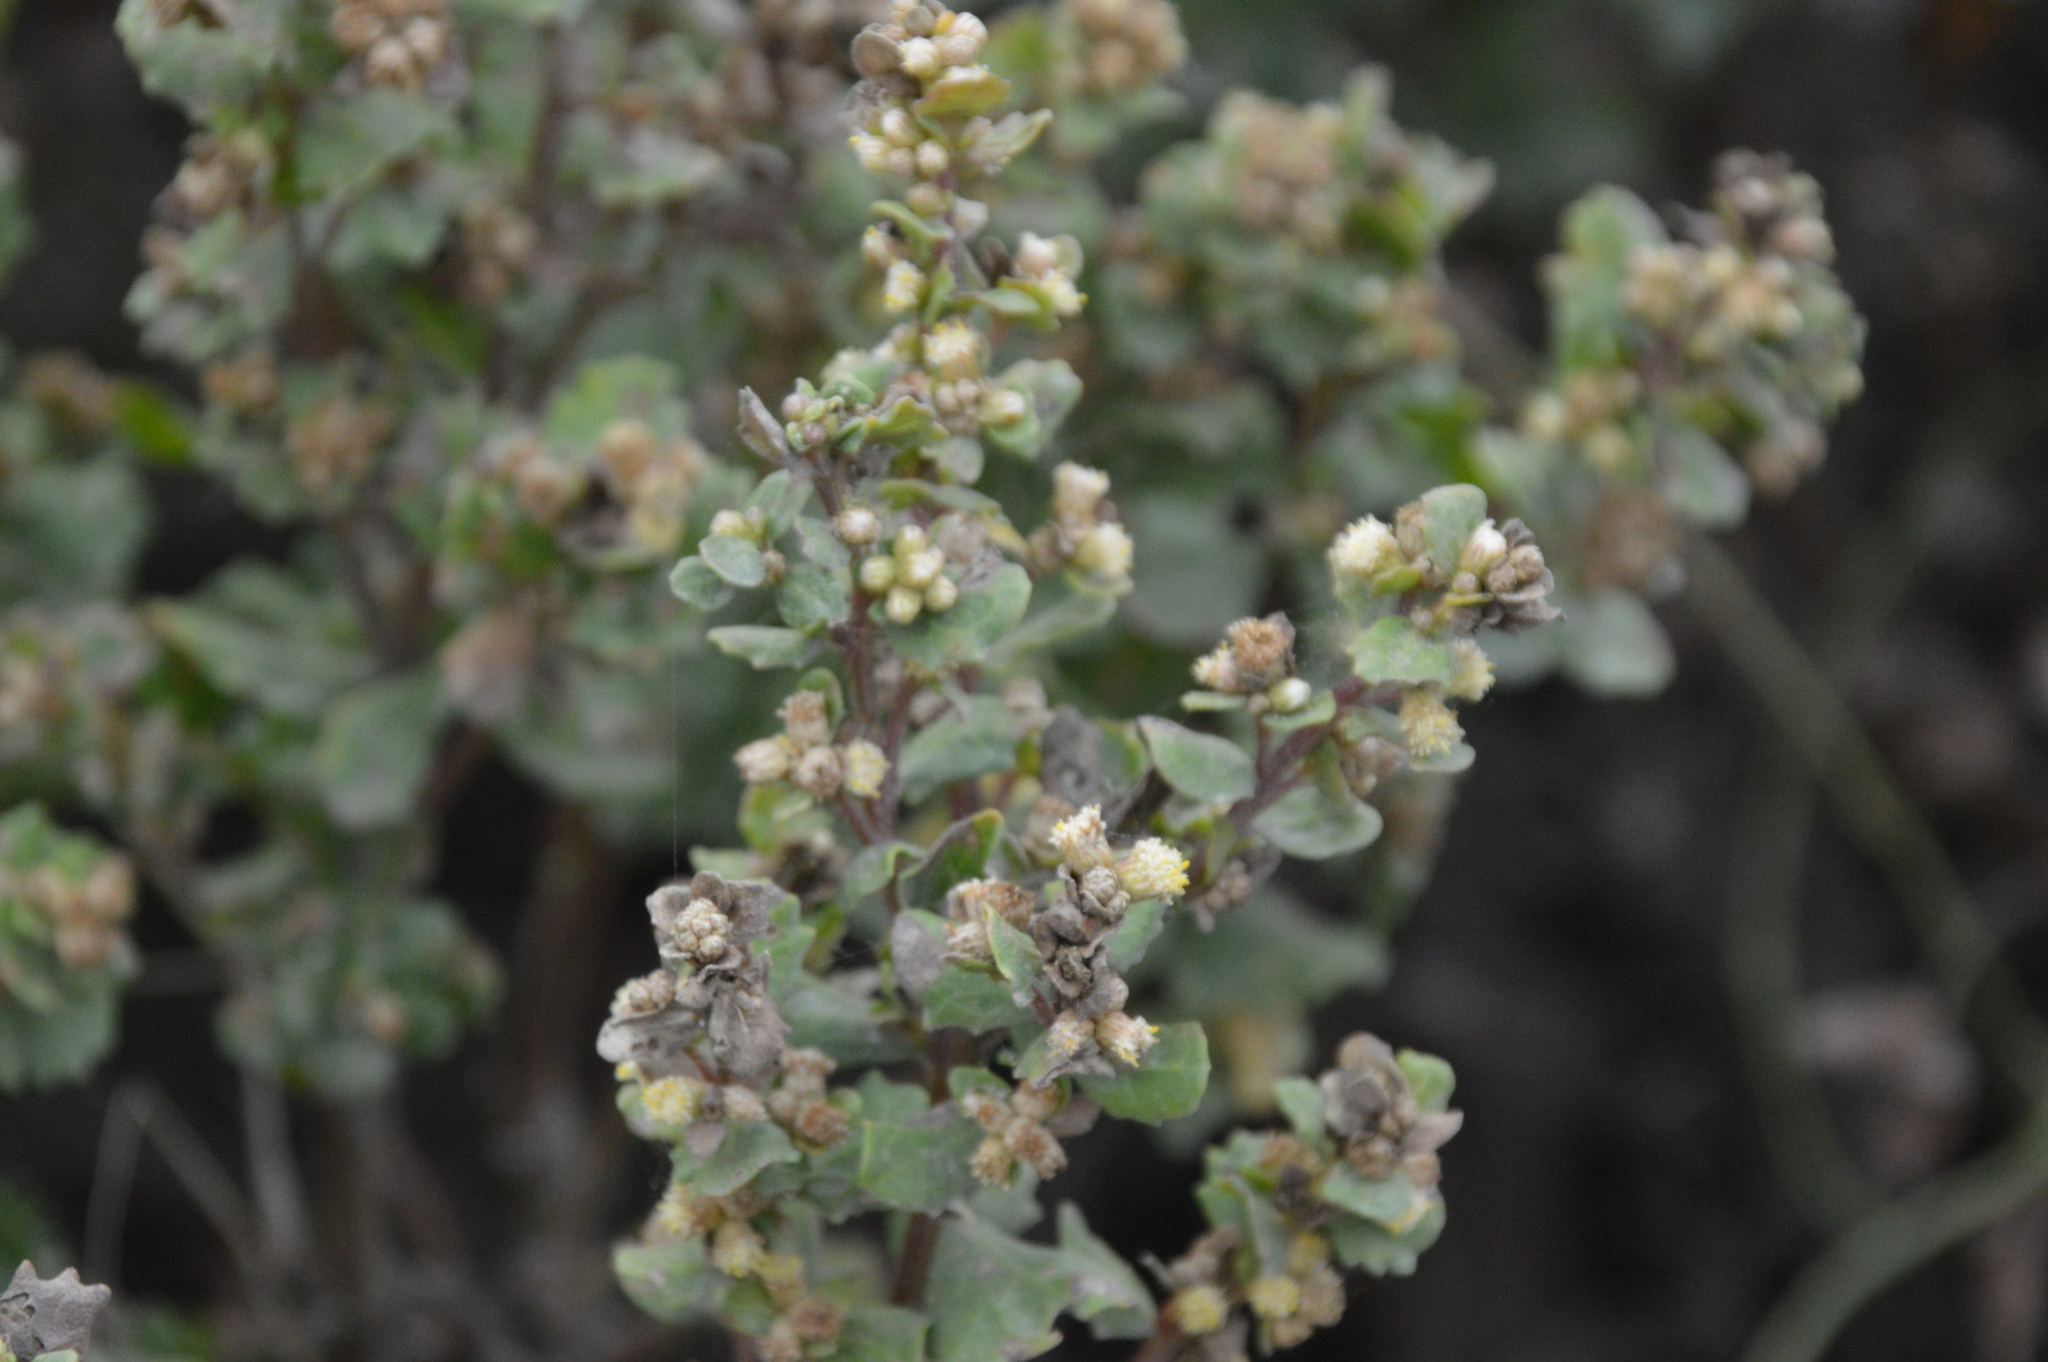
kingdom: Plantae
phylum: Tracheophyta
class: Magnoliopsida
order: Asterales
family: Asteraceae
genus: Baccharis
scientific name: Baccharis pilularis
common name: Coyotebrush
